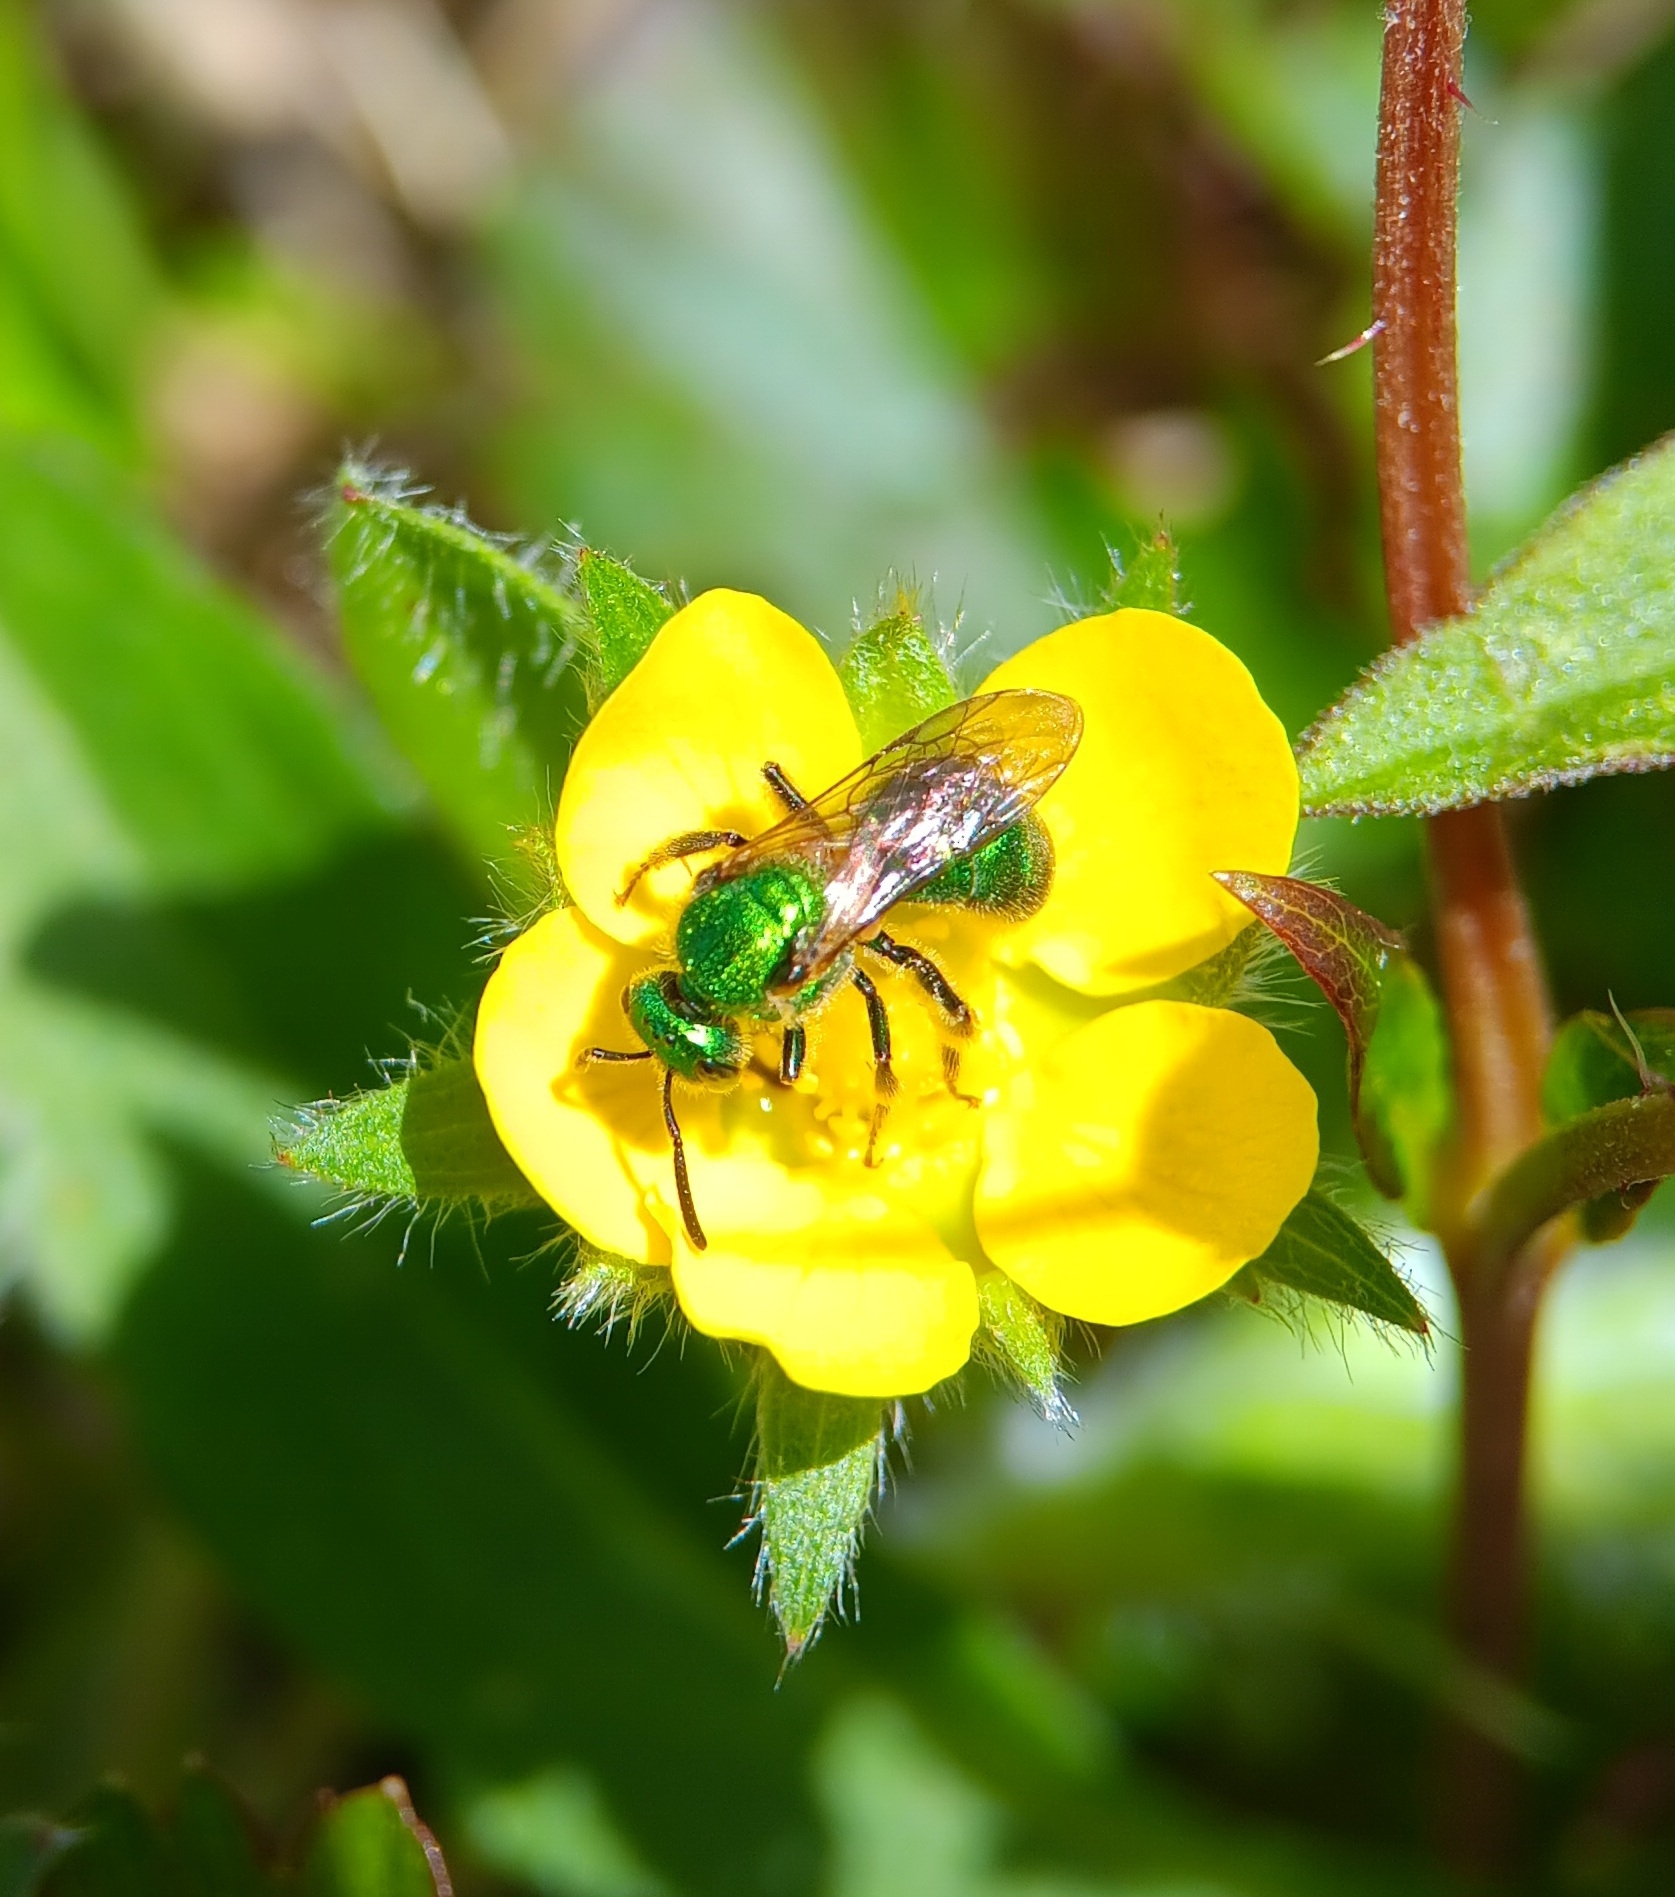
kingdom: Animalia
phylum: Arthropoda
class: Insecta
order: Hymenoptera
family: Halictidae
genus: Augochlorella
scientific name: Augochlorella aurata
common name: Golden sweat bee
